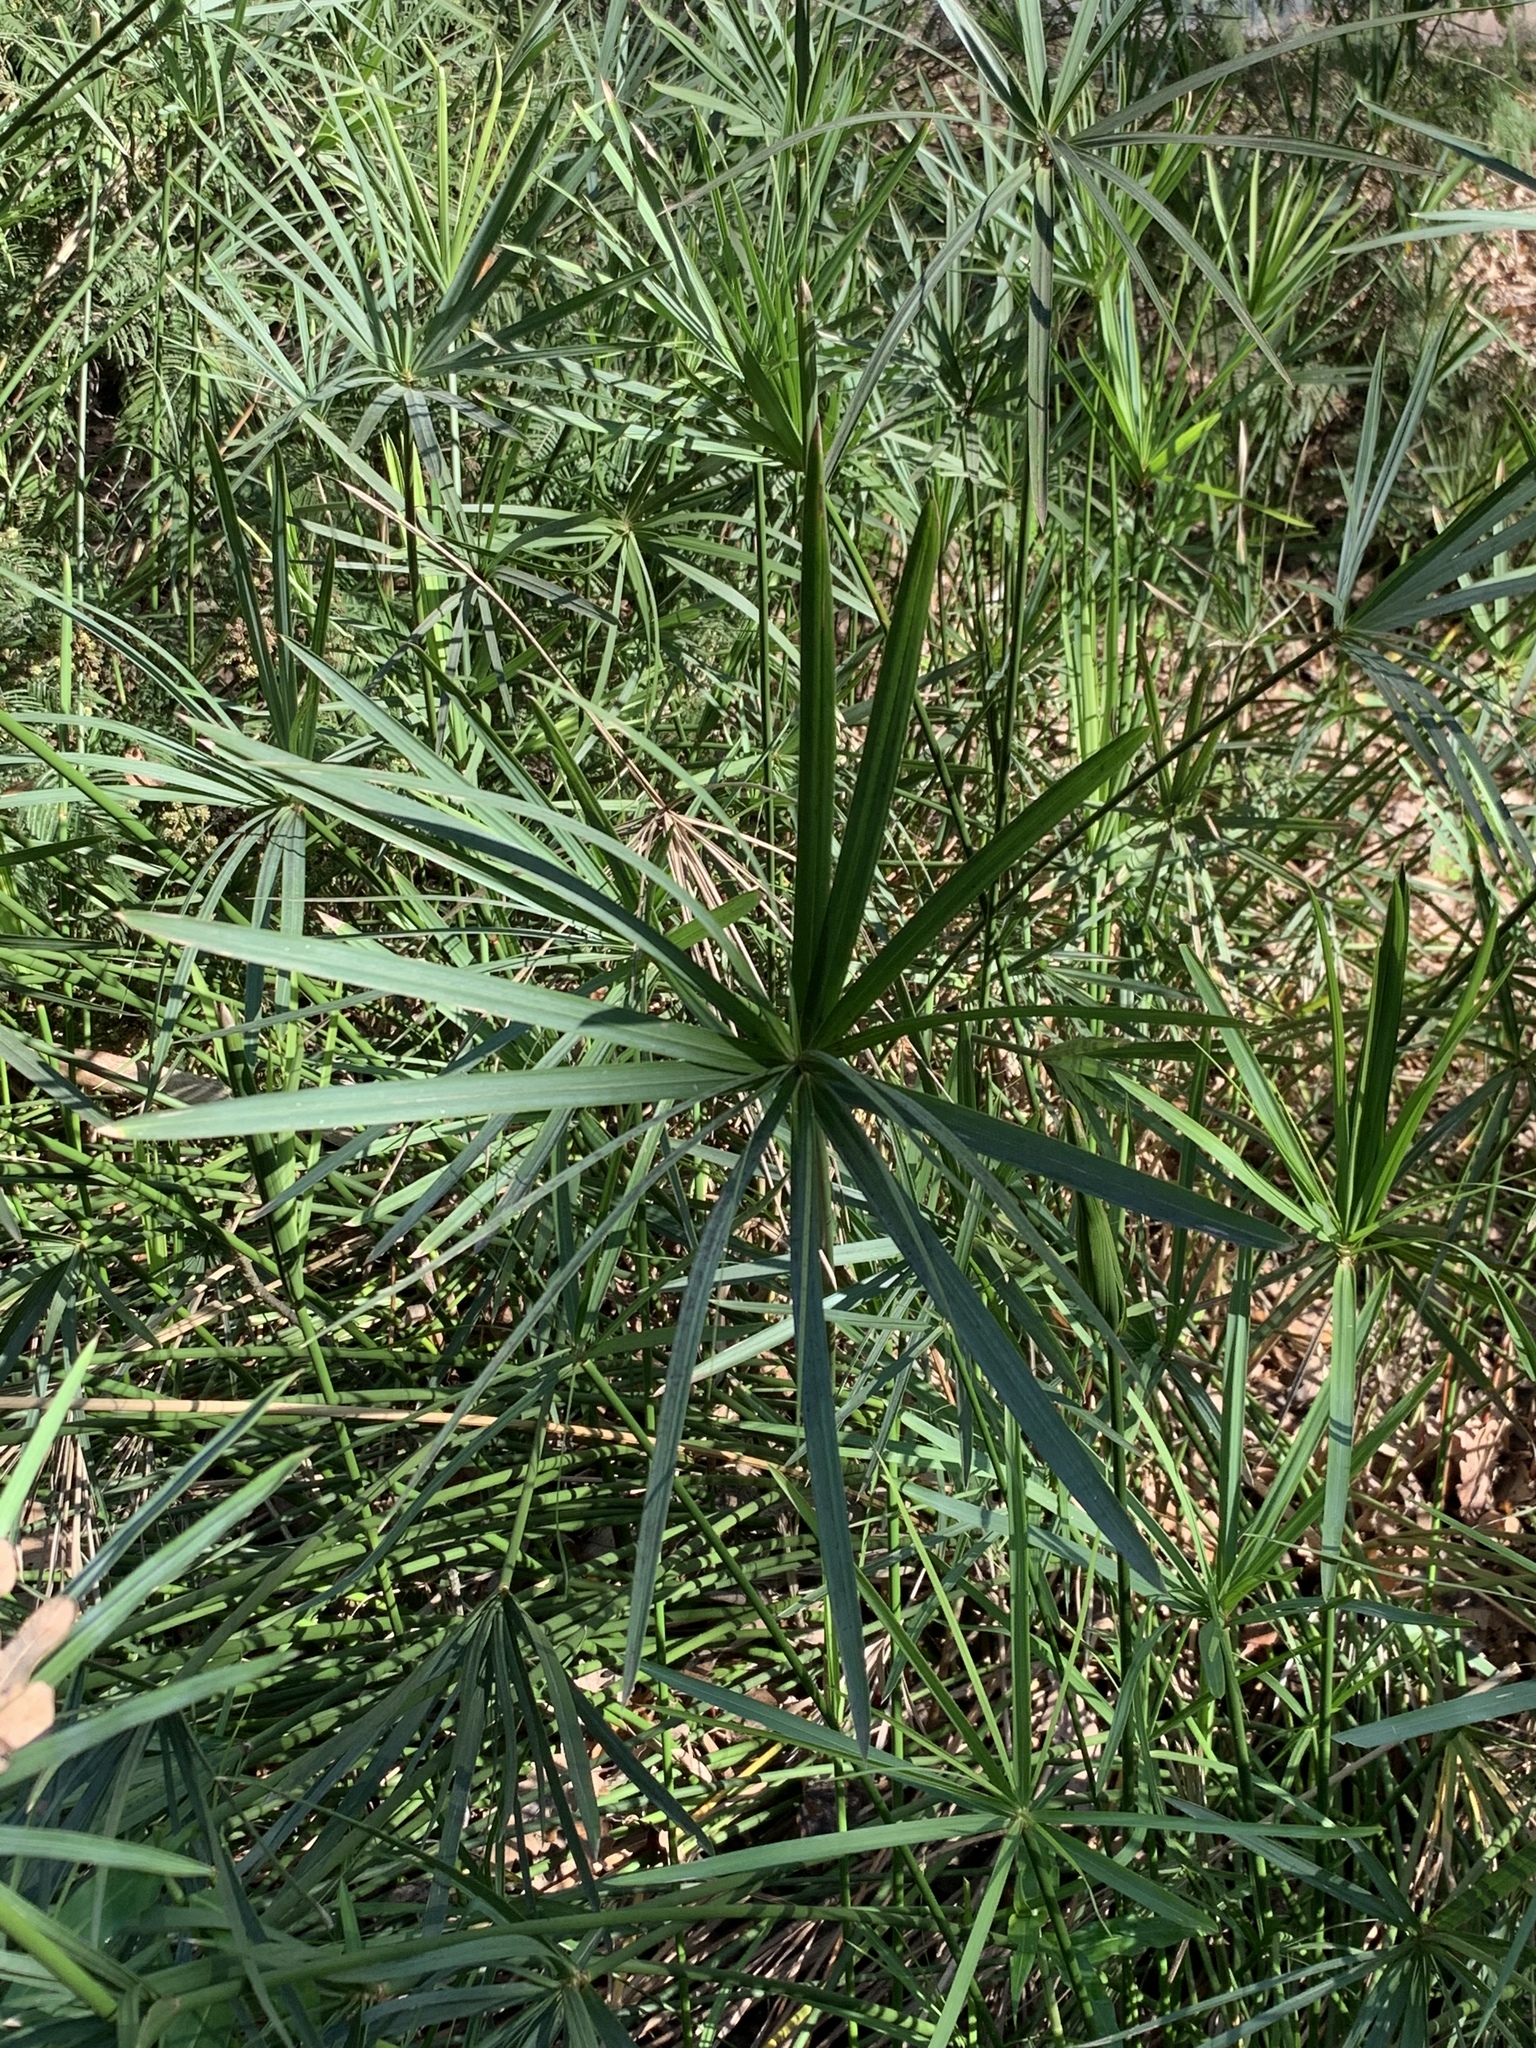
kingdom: Plantae
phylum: Tracheophyta
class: Liliopsida
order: Poales
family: Cyperaceae
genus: Cyperus
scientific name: Cyperus textilis
